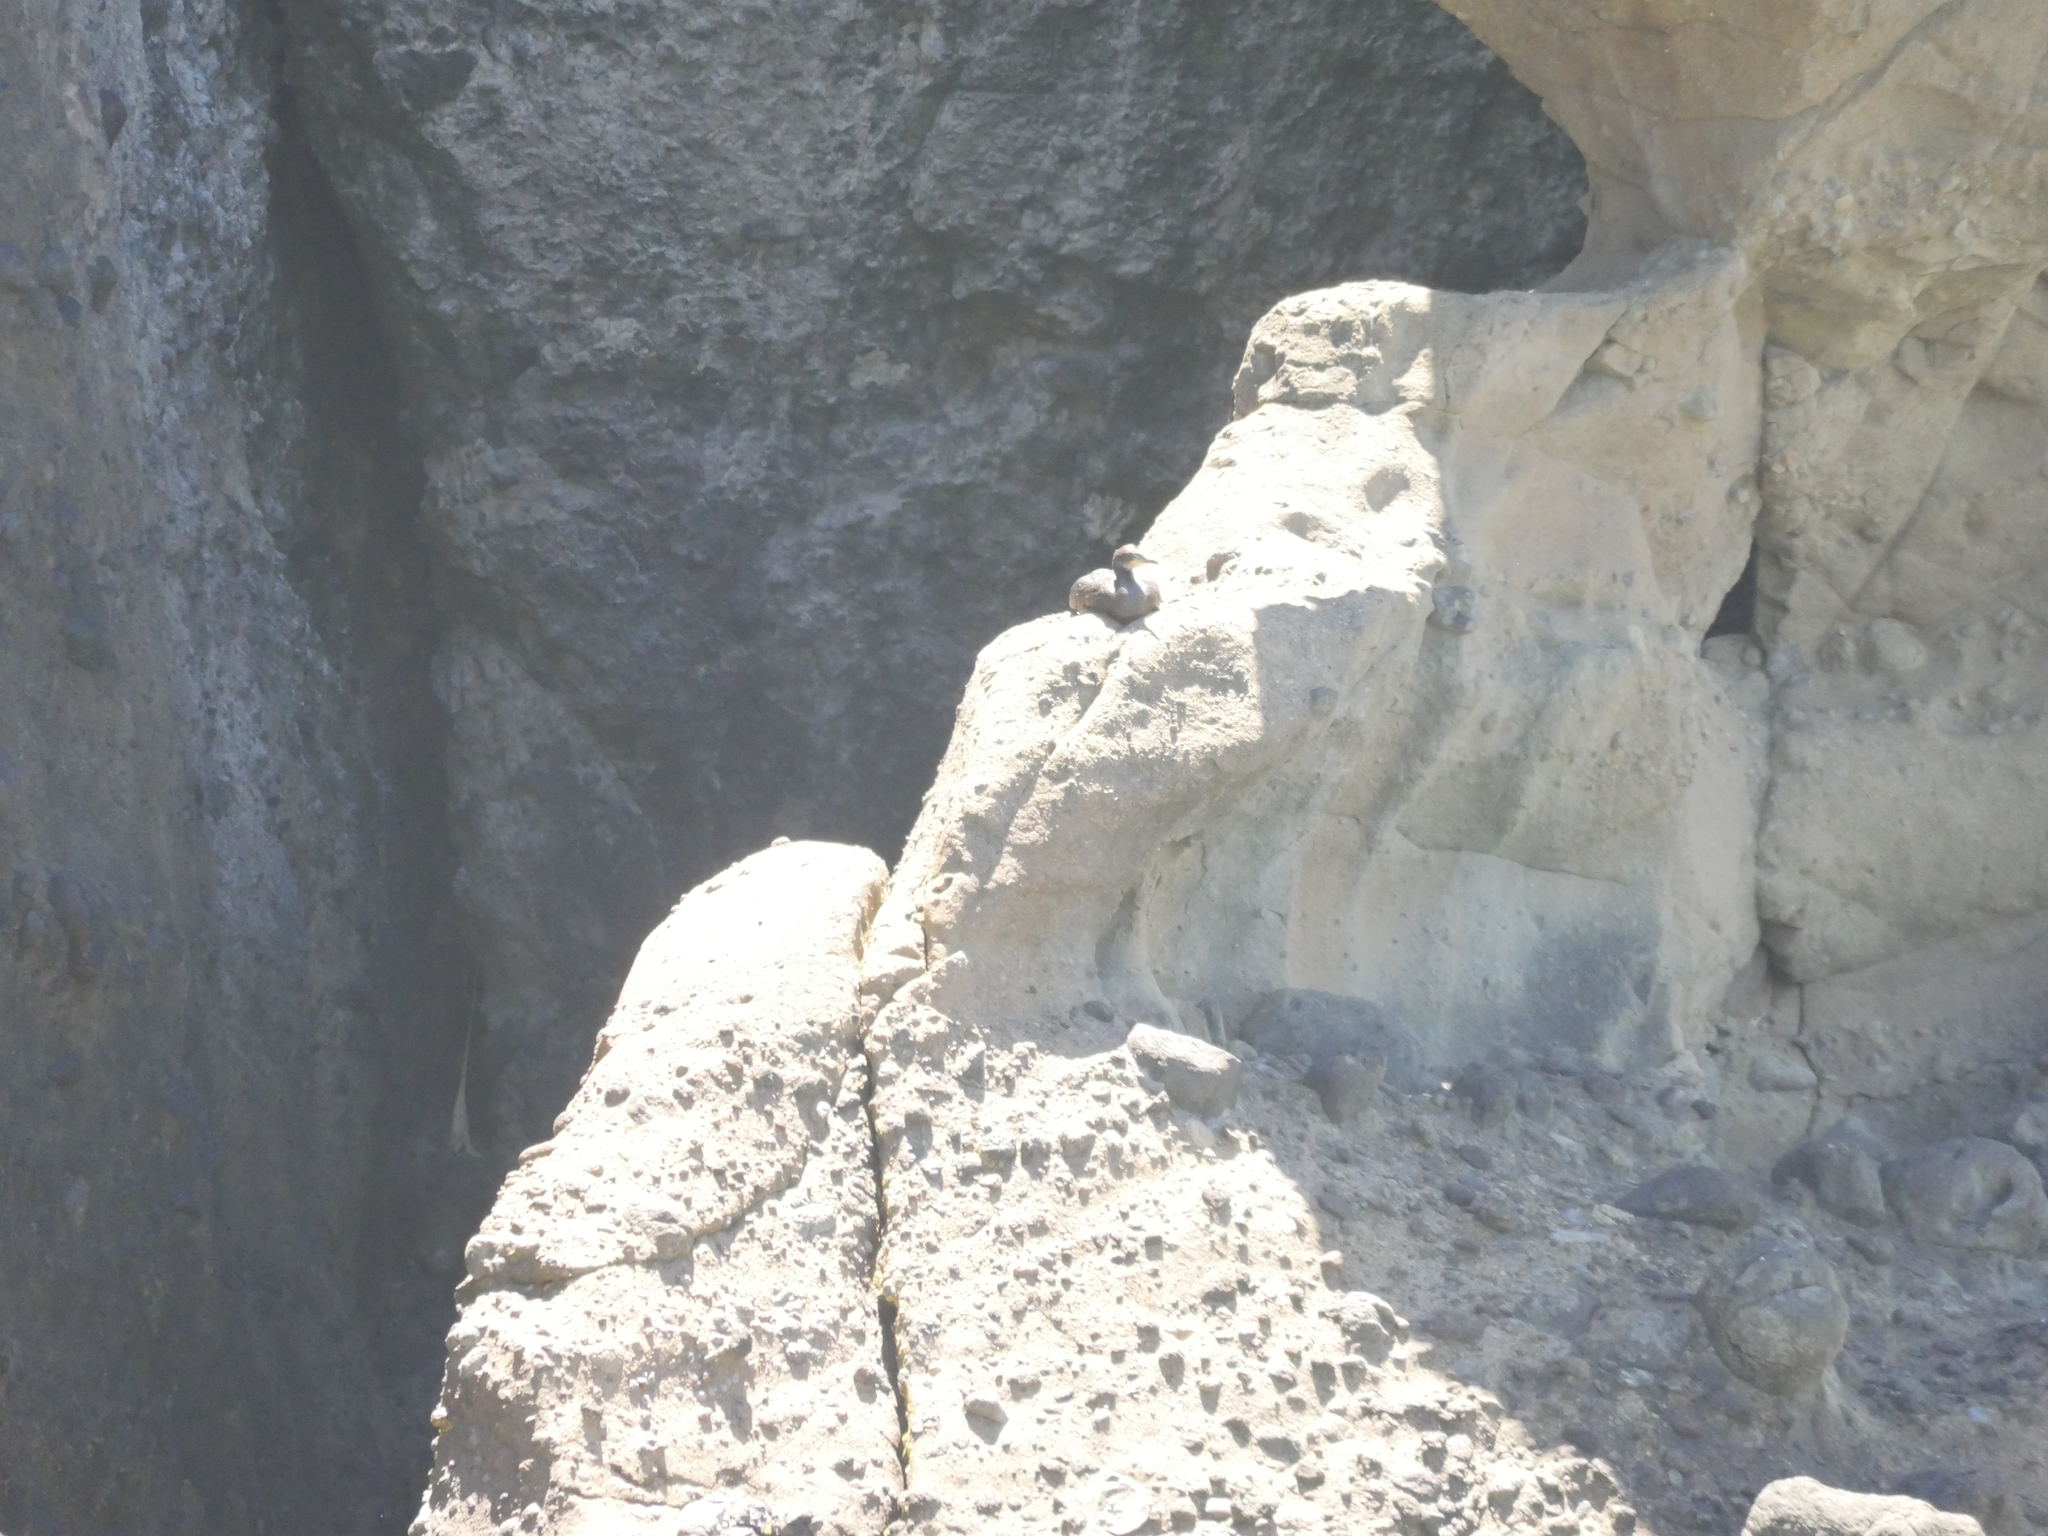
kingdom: Animalia
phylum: Chordata
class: Aves
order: Suliformes
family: Phalacrocoracidae
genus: Phalacrocorax
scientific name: Phalacrocorax carbo
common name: Great cormorant
